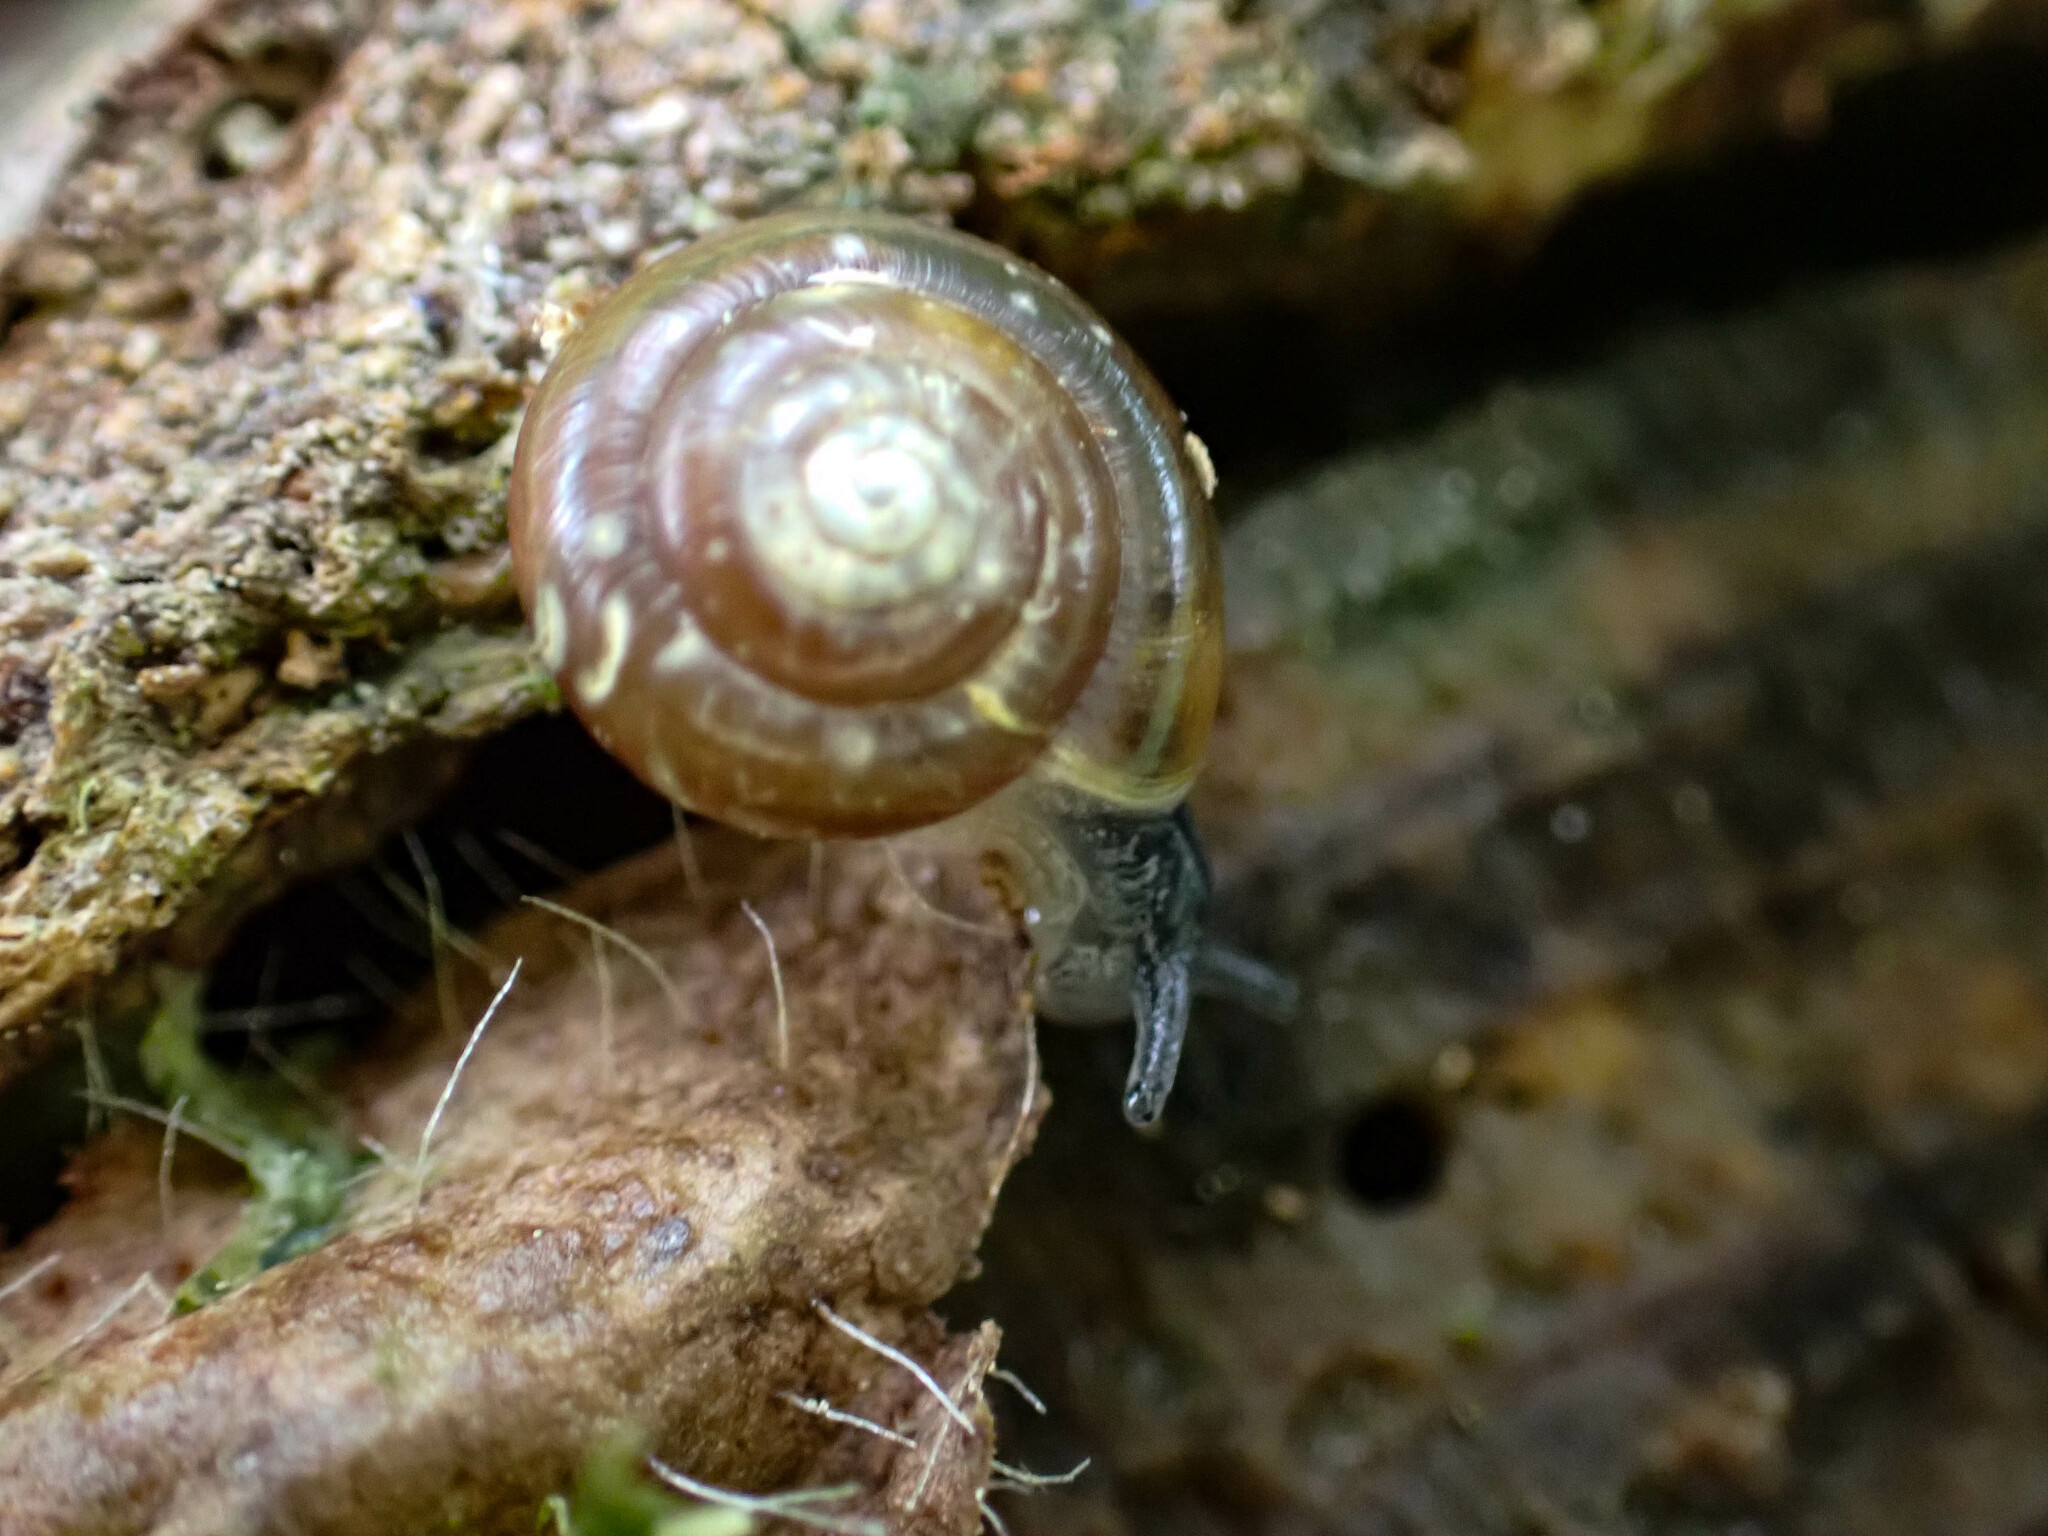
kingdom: Animalia
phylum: Mollusca
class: Gastropoda
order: Stylommatophora
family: Gastrodontidae
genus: Zonitoides
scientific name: Zonitoides arboreus
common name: Quick gloss
